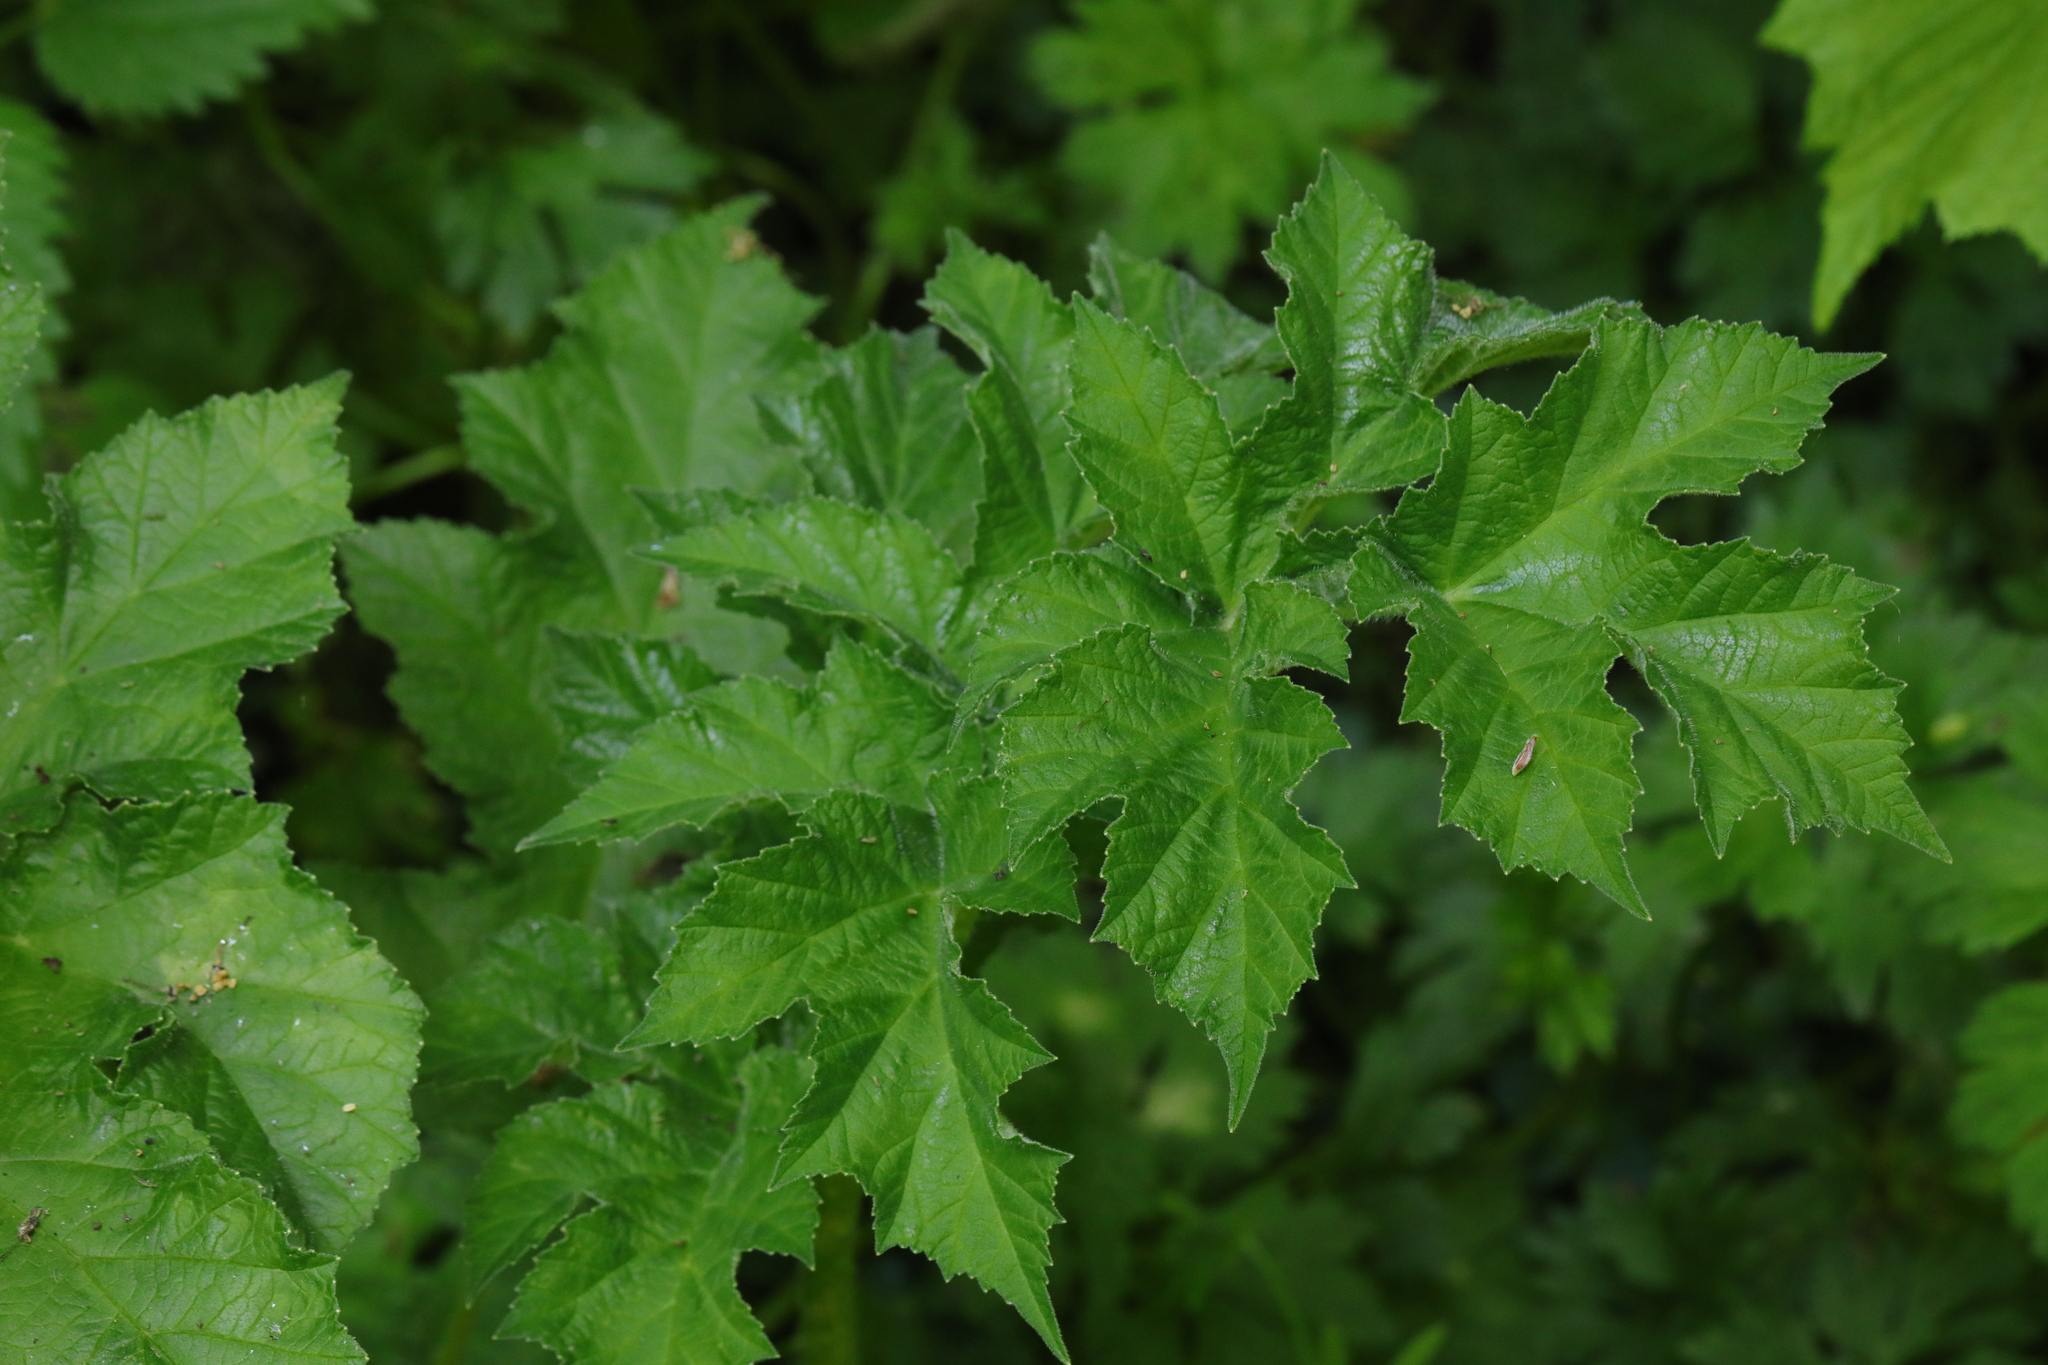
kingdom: Plantae
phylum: Tracheophyta
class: Magnoliopsida
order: Apiales
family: Apiaceae
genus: Heracleum
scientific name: Heracleum sphondylium
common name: Hogweed
